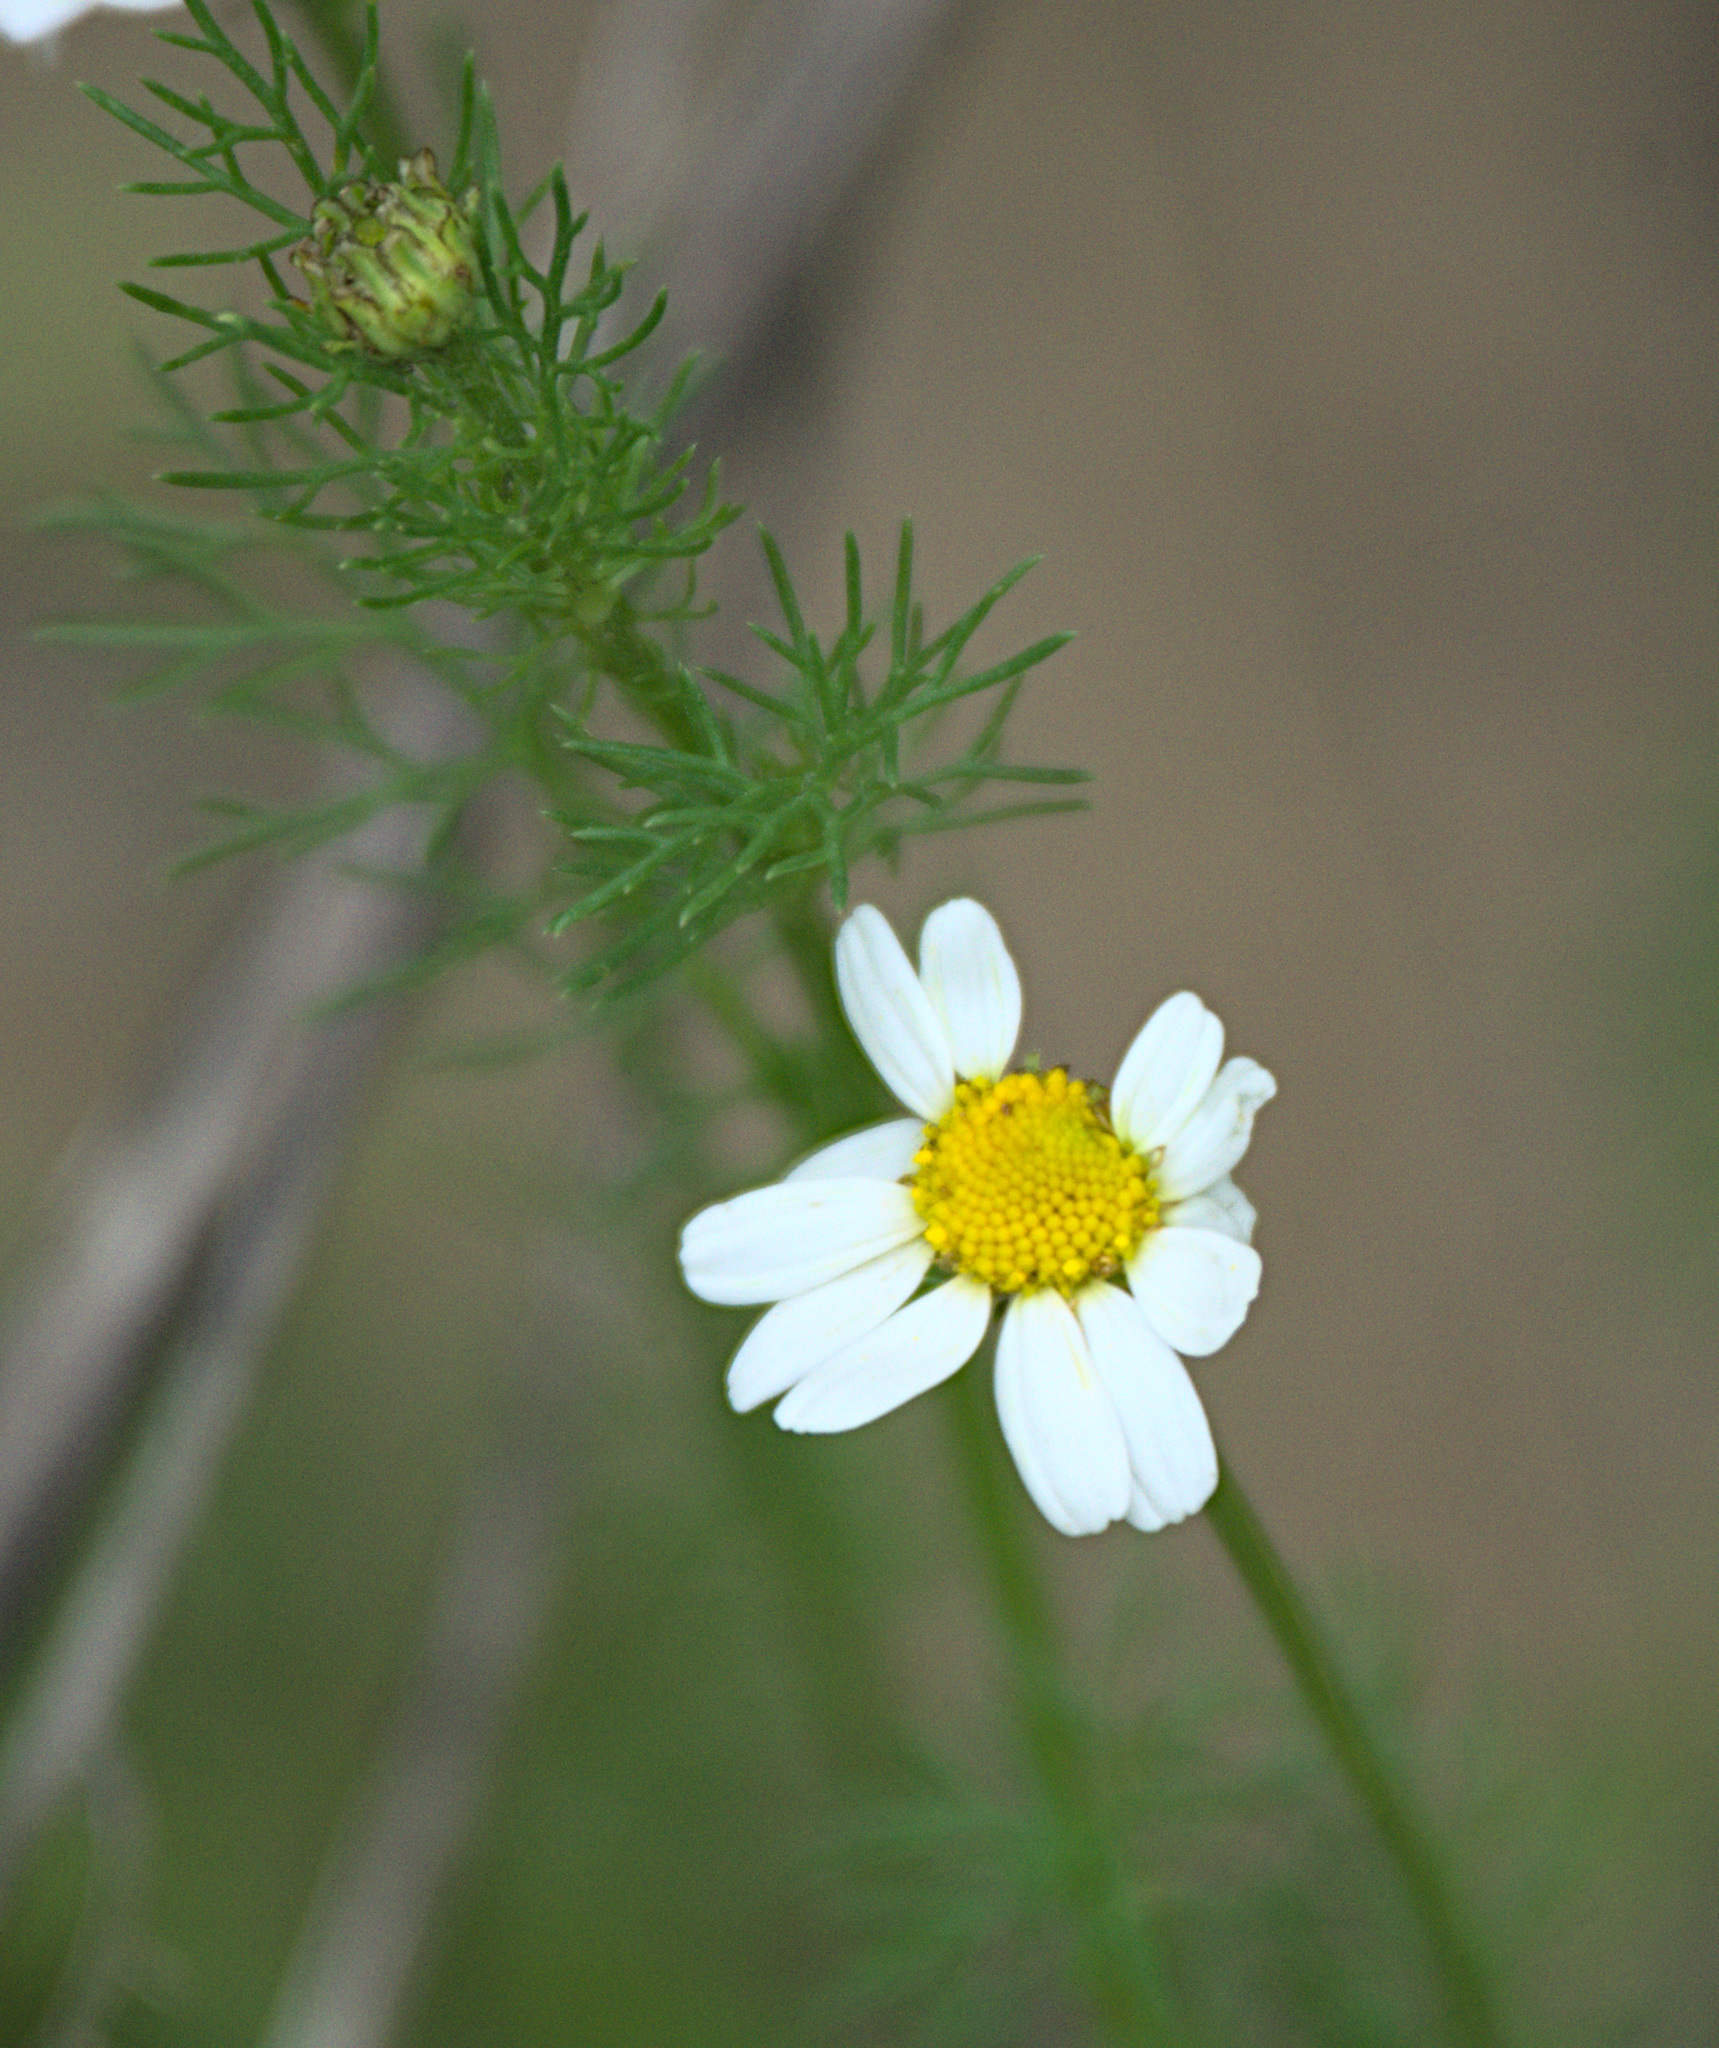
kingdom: Plantae
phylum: Tracheophyta
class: Magnoliopsida
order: Asterales
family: Asteraceae
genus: Tripleurospermum
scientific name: Tripleurospermum inodorum
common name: Scentless mayweed
